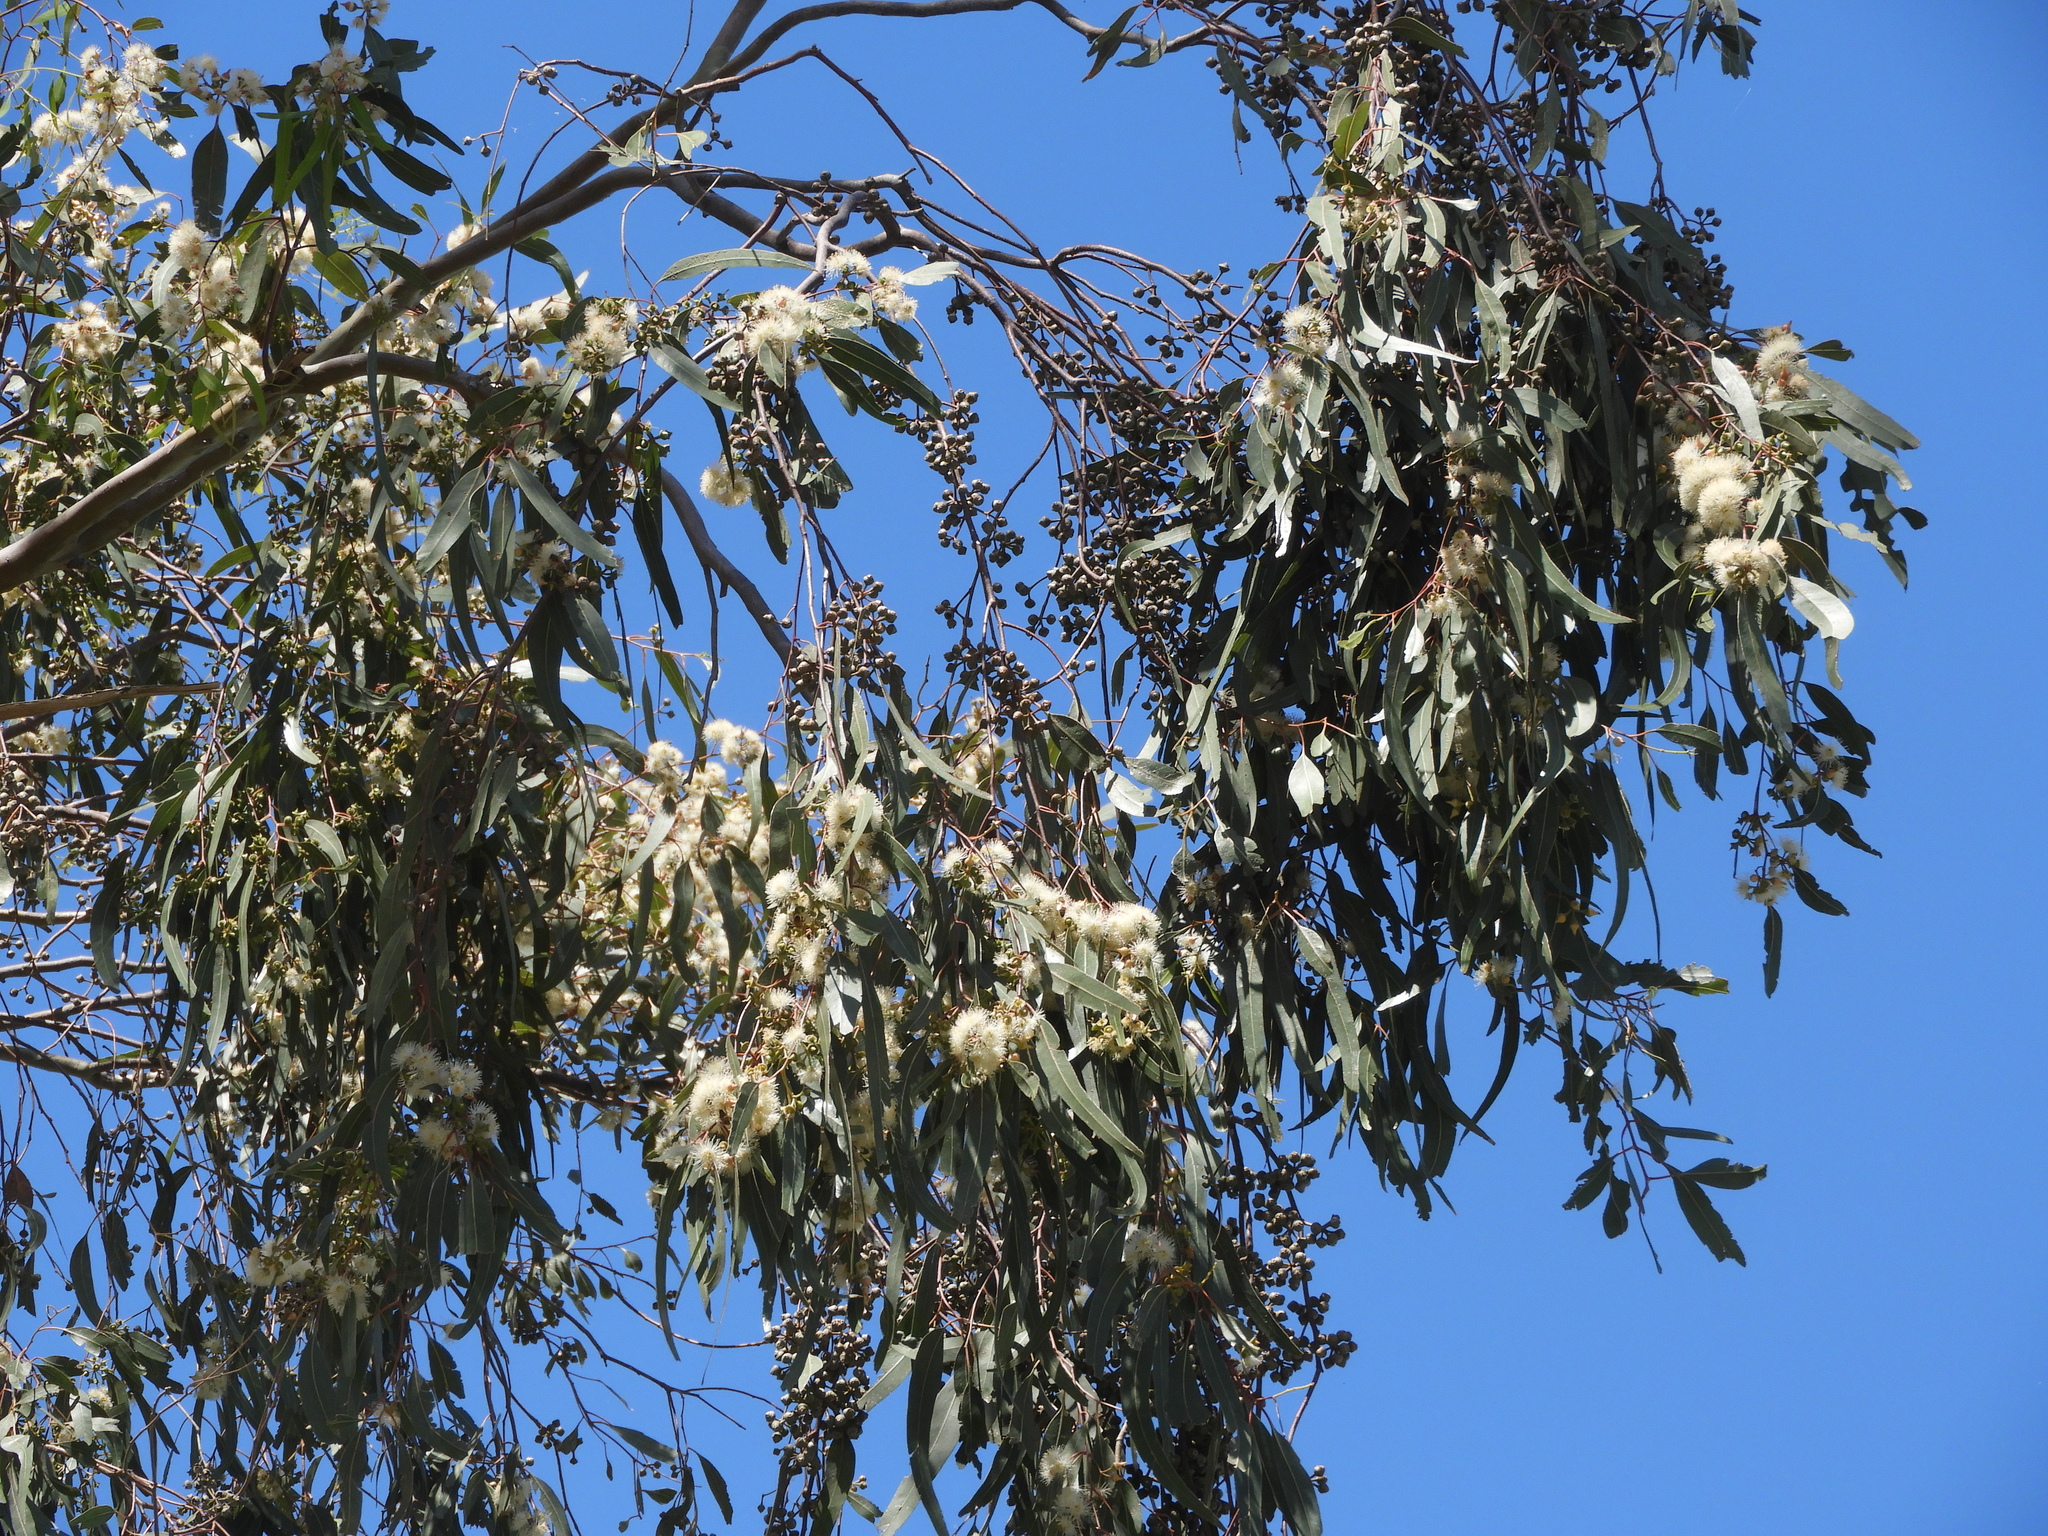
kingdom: Plantae
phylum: Tracheophyta
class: Magnoliopsida
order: Myrtales
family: Myrtaceae
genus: Eucalyptus
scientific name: Eucalyptus camaldulensis
